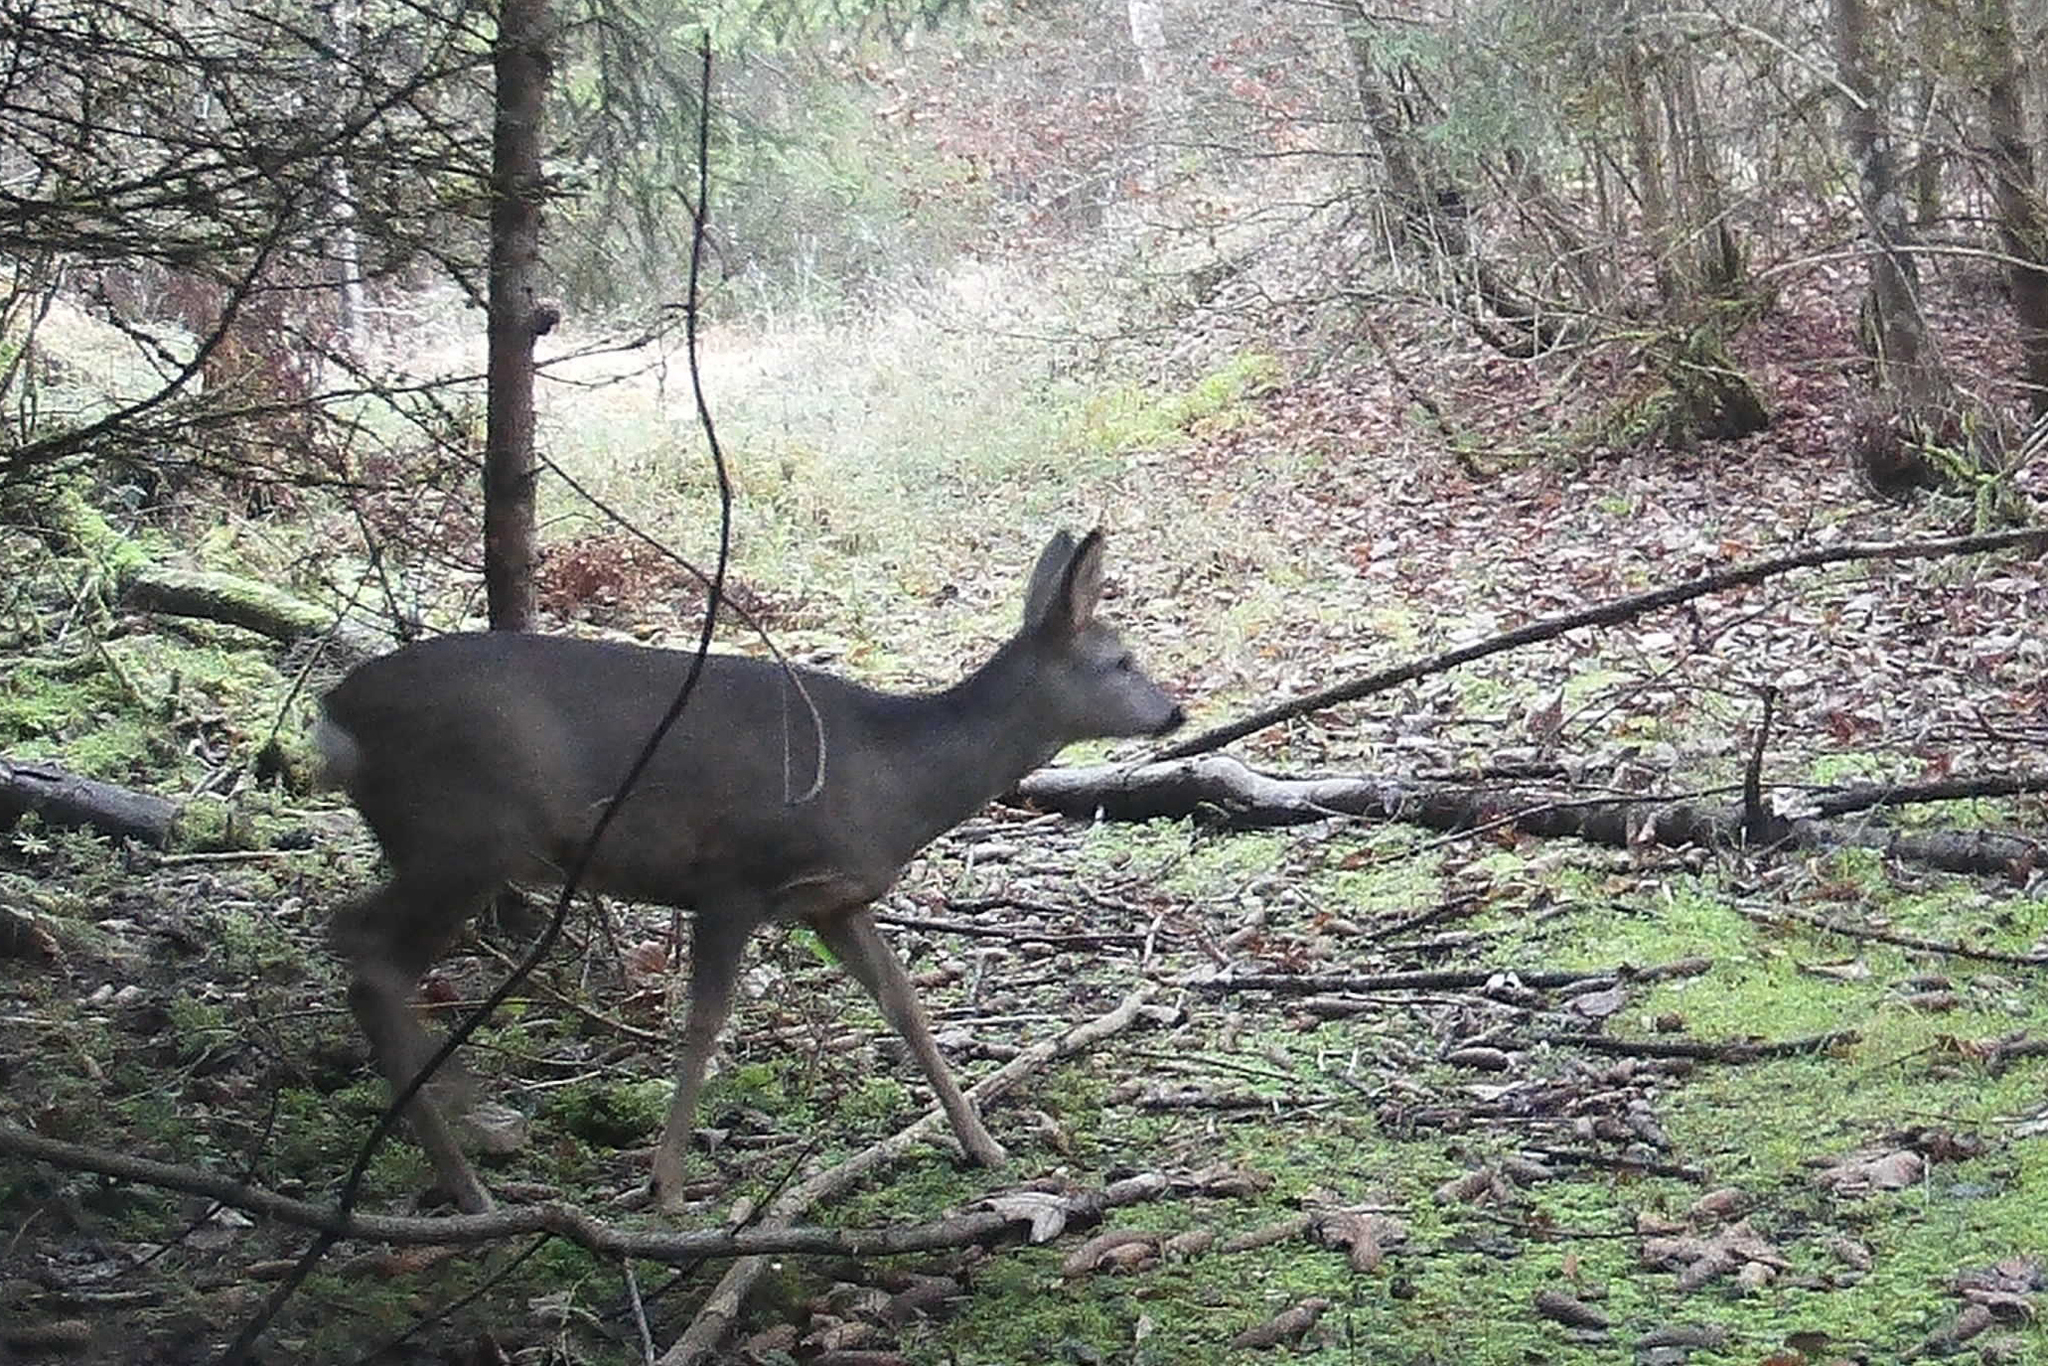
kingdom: Animalia
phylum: Chordata
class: Mammalia
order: Artiodactyla
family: Cervidae
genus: Capreolus
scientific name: Capreolus capreolus
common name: Western roe deer
